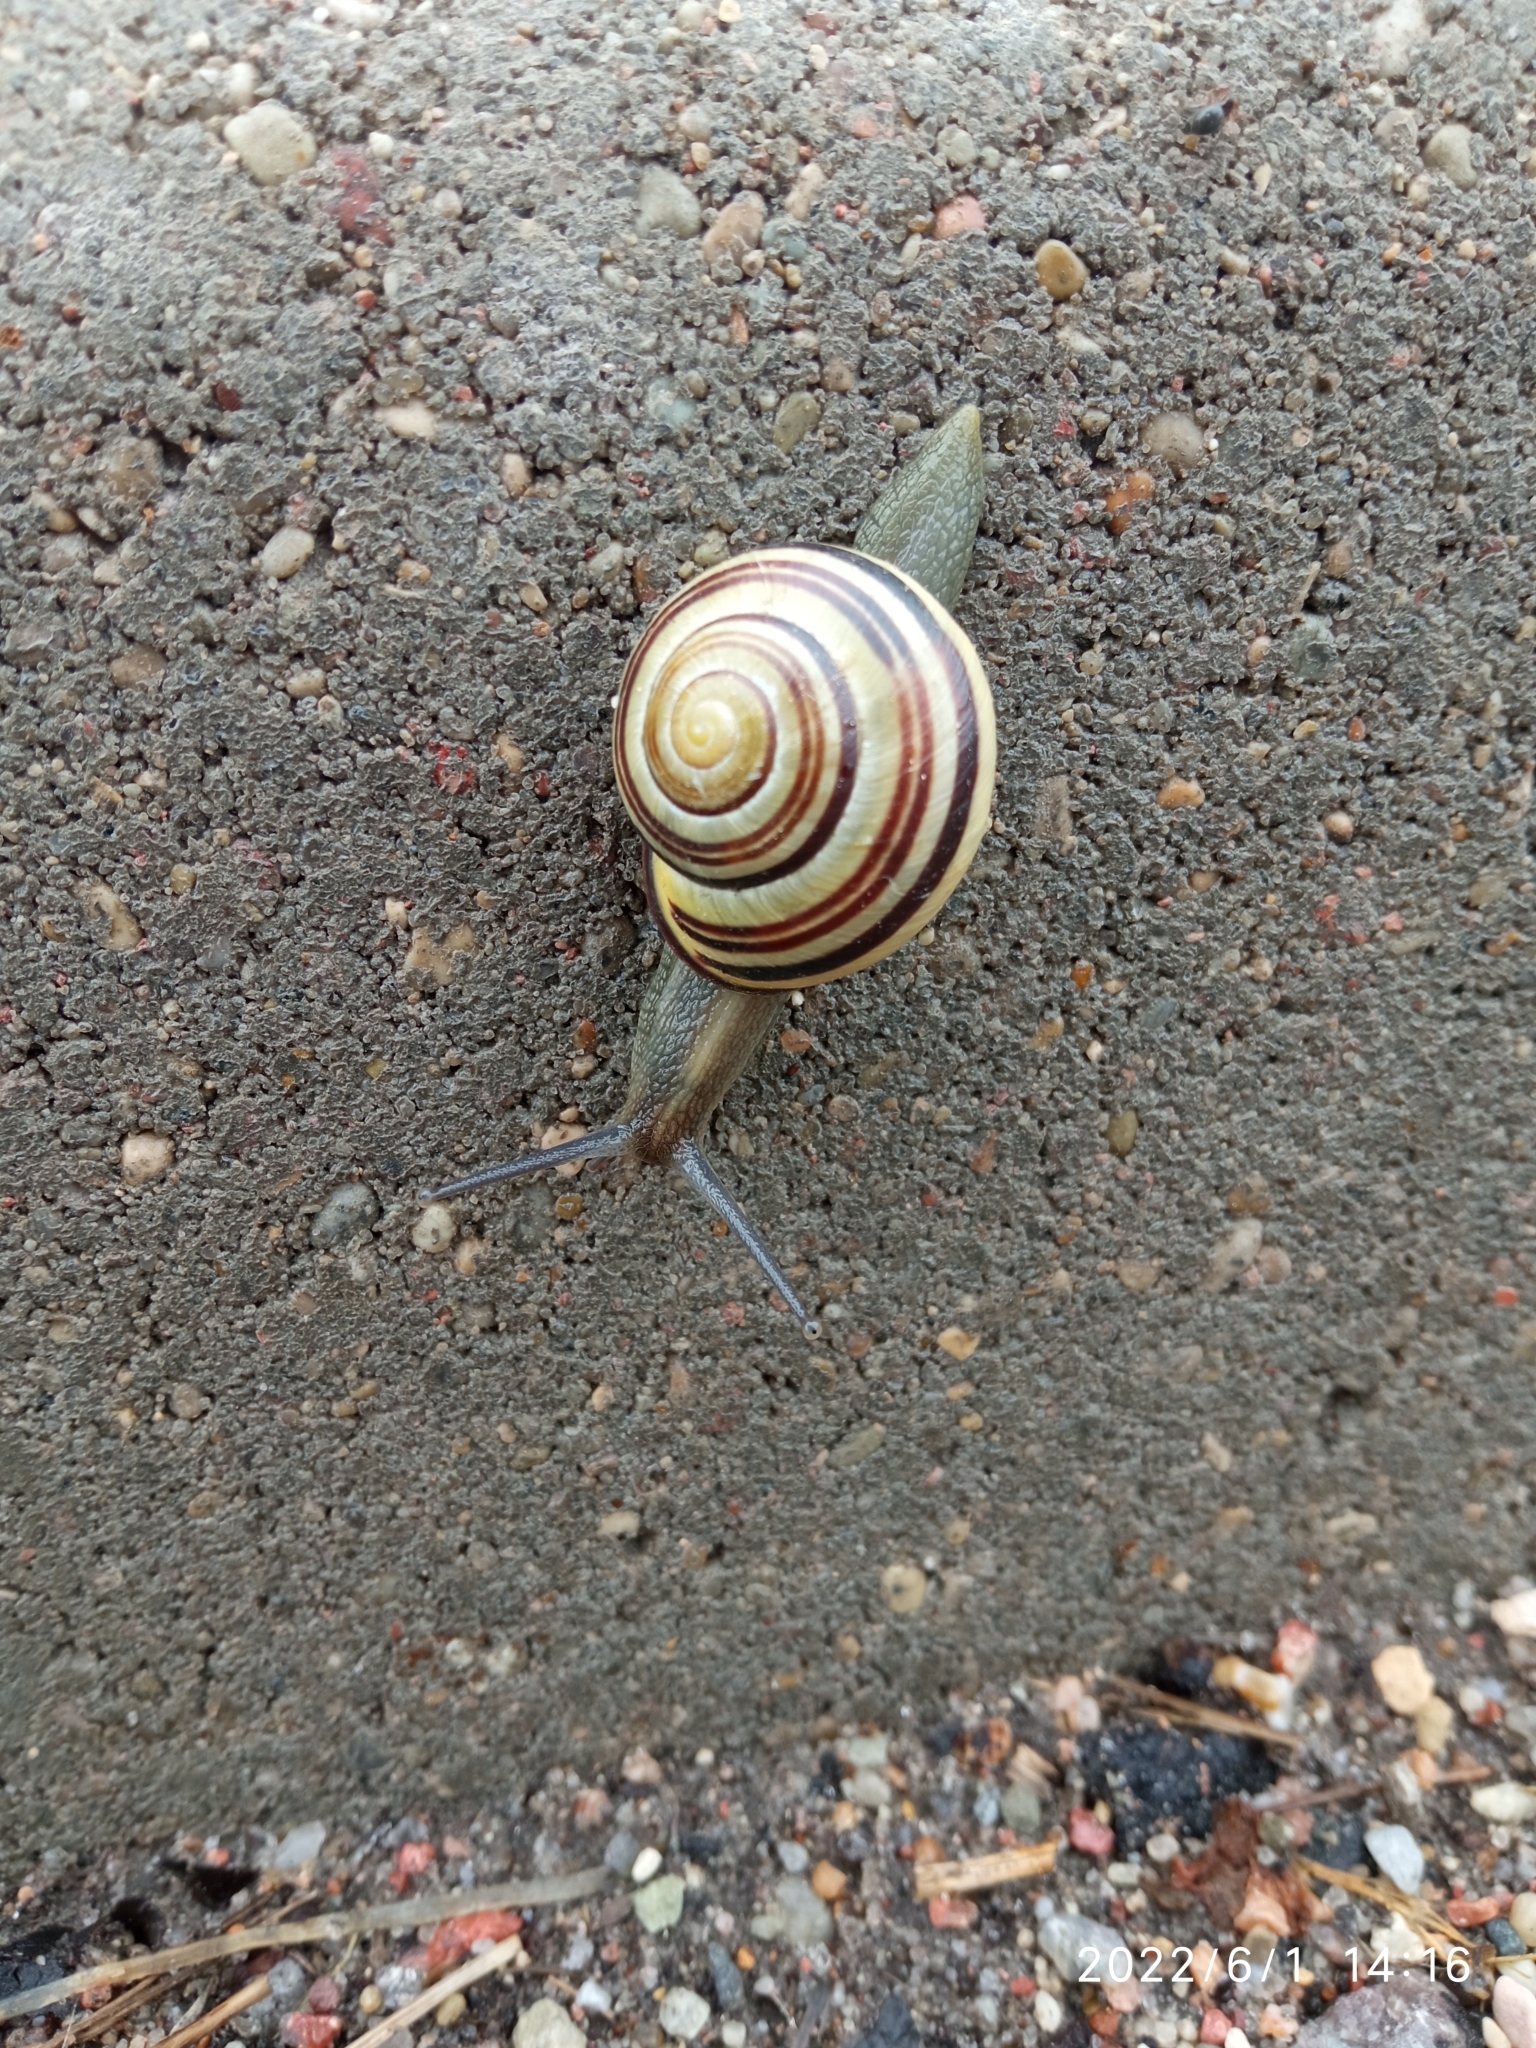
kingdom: Animalia
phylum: Mollusca
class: Gastropoda
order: Stylommatophora
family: Helicidae
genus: Cepaea
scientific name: Cepaea nemoralis
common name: Grovesnail
